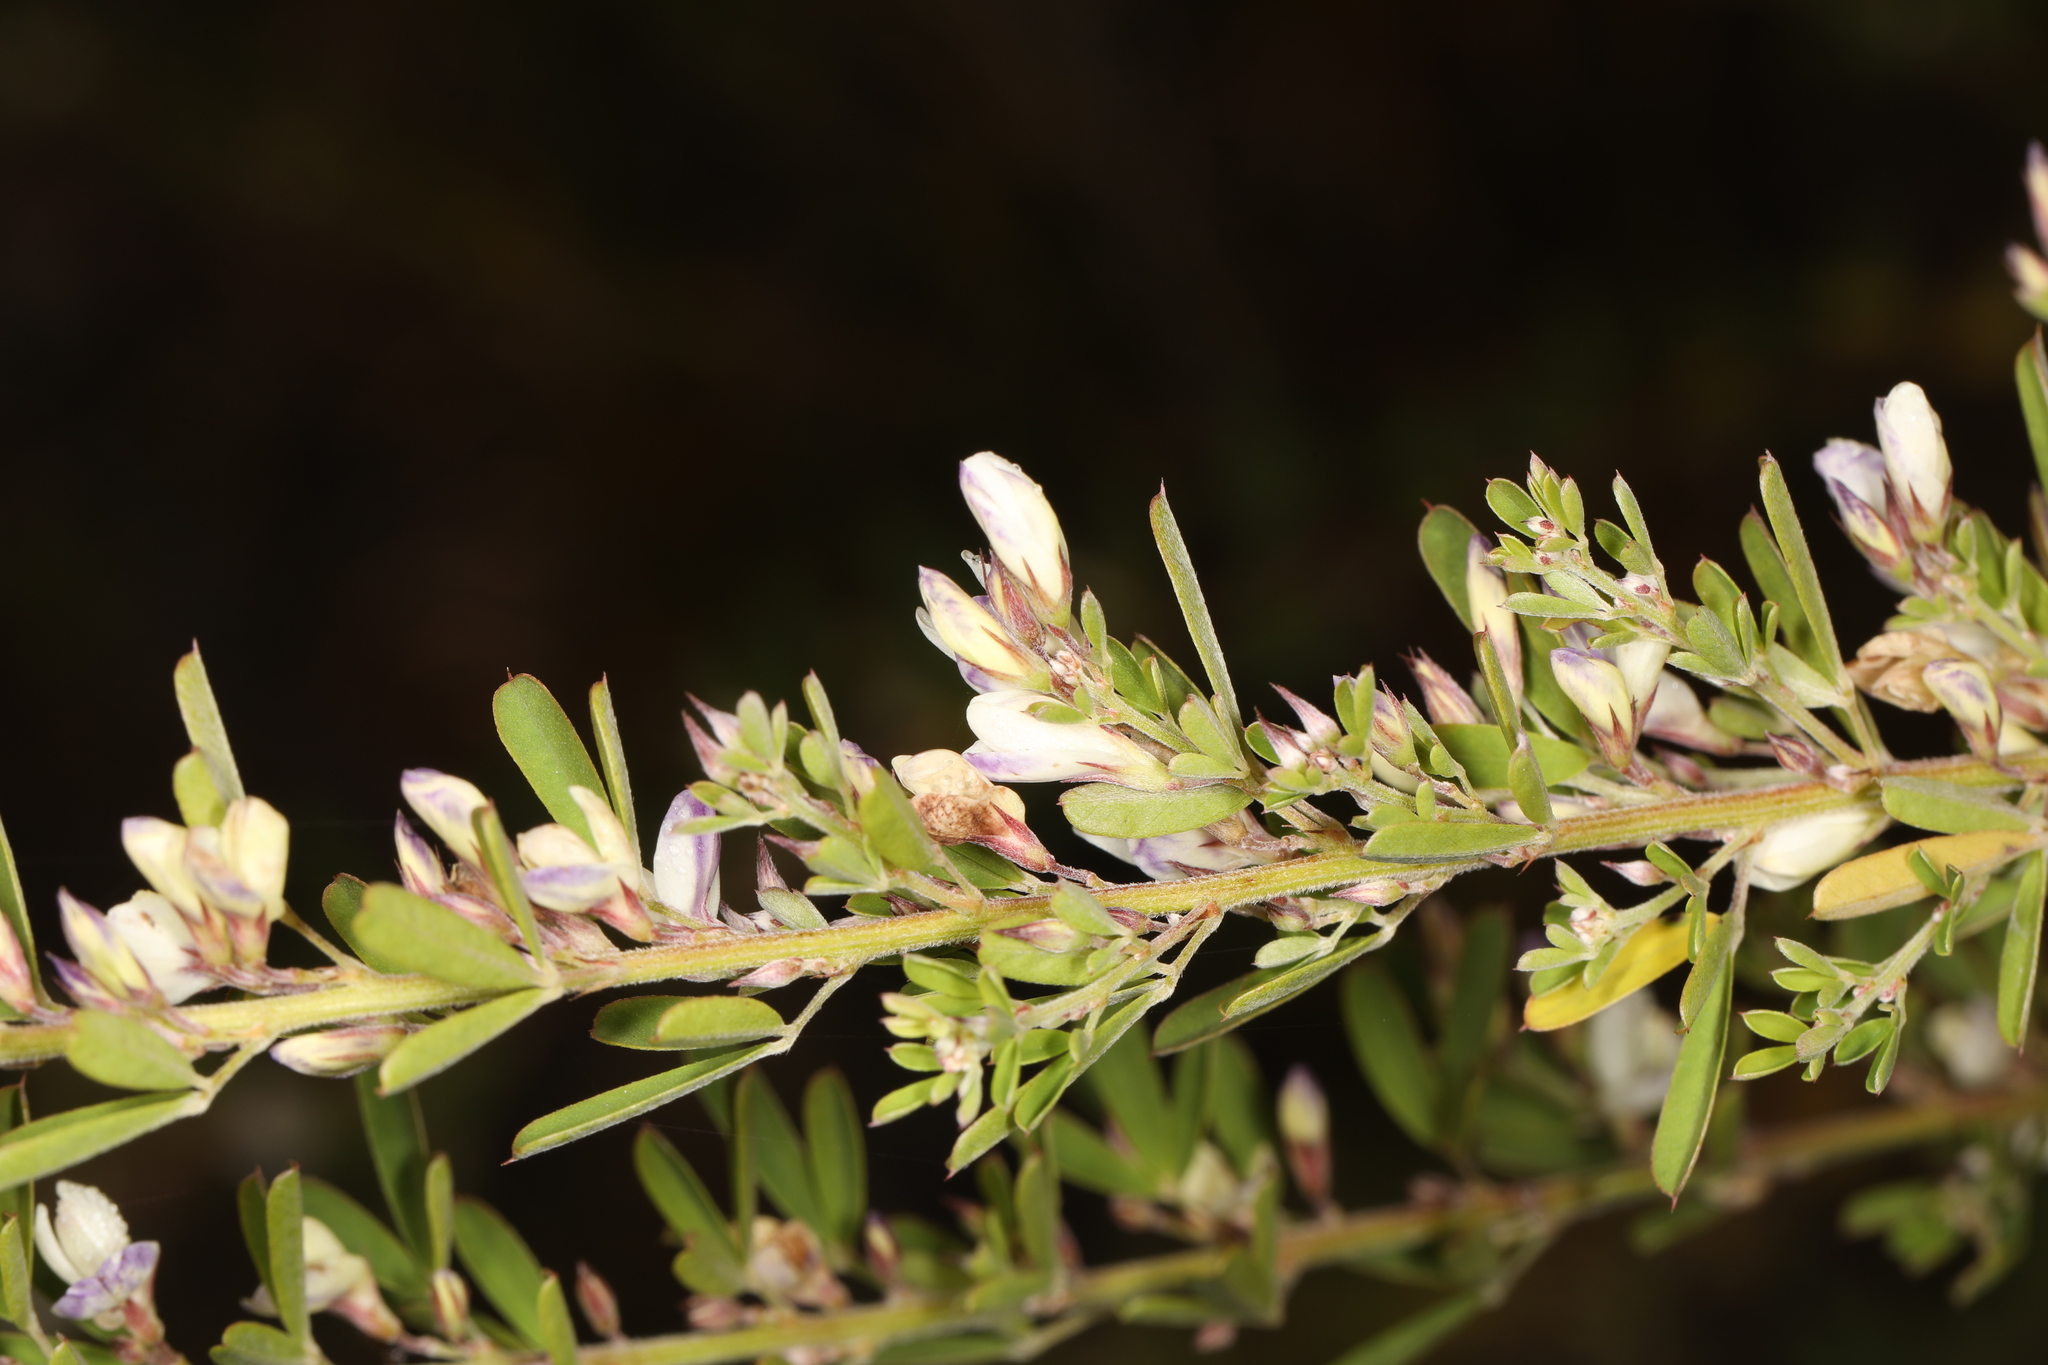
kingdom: Plantae
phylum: Tracheophyta
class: Magnoliopsida
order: Fabales
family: Fabaceae
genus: Lespedeza
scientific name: Lespedeza cuneata
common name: Chinese bush-clover
